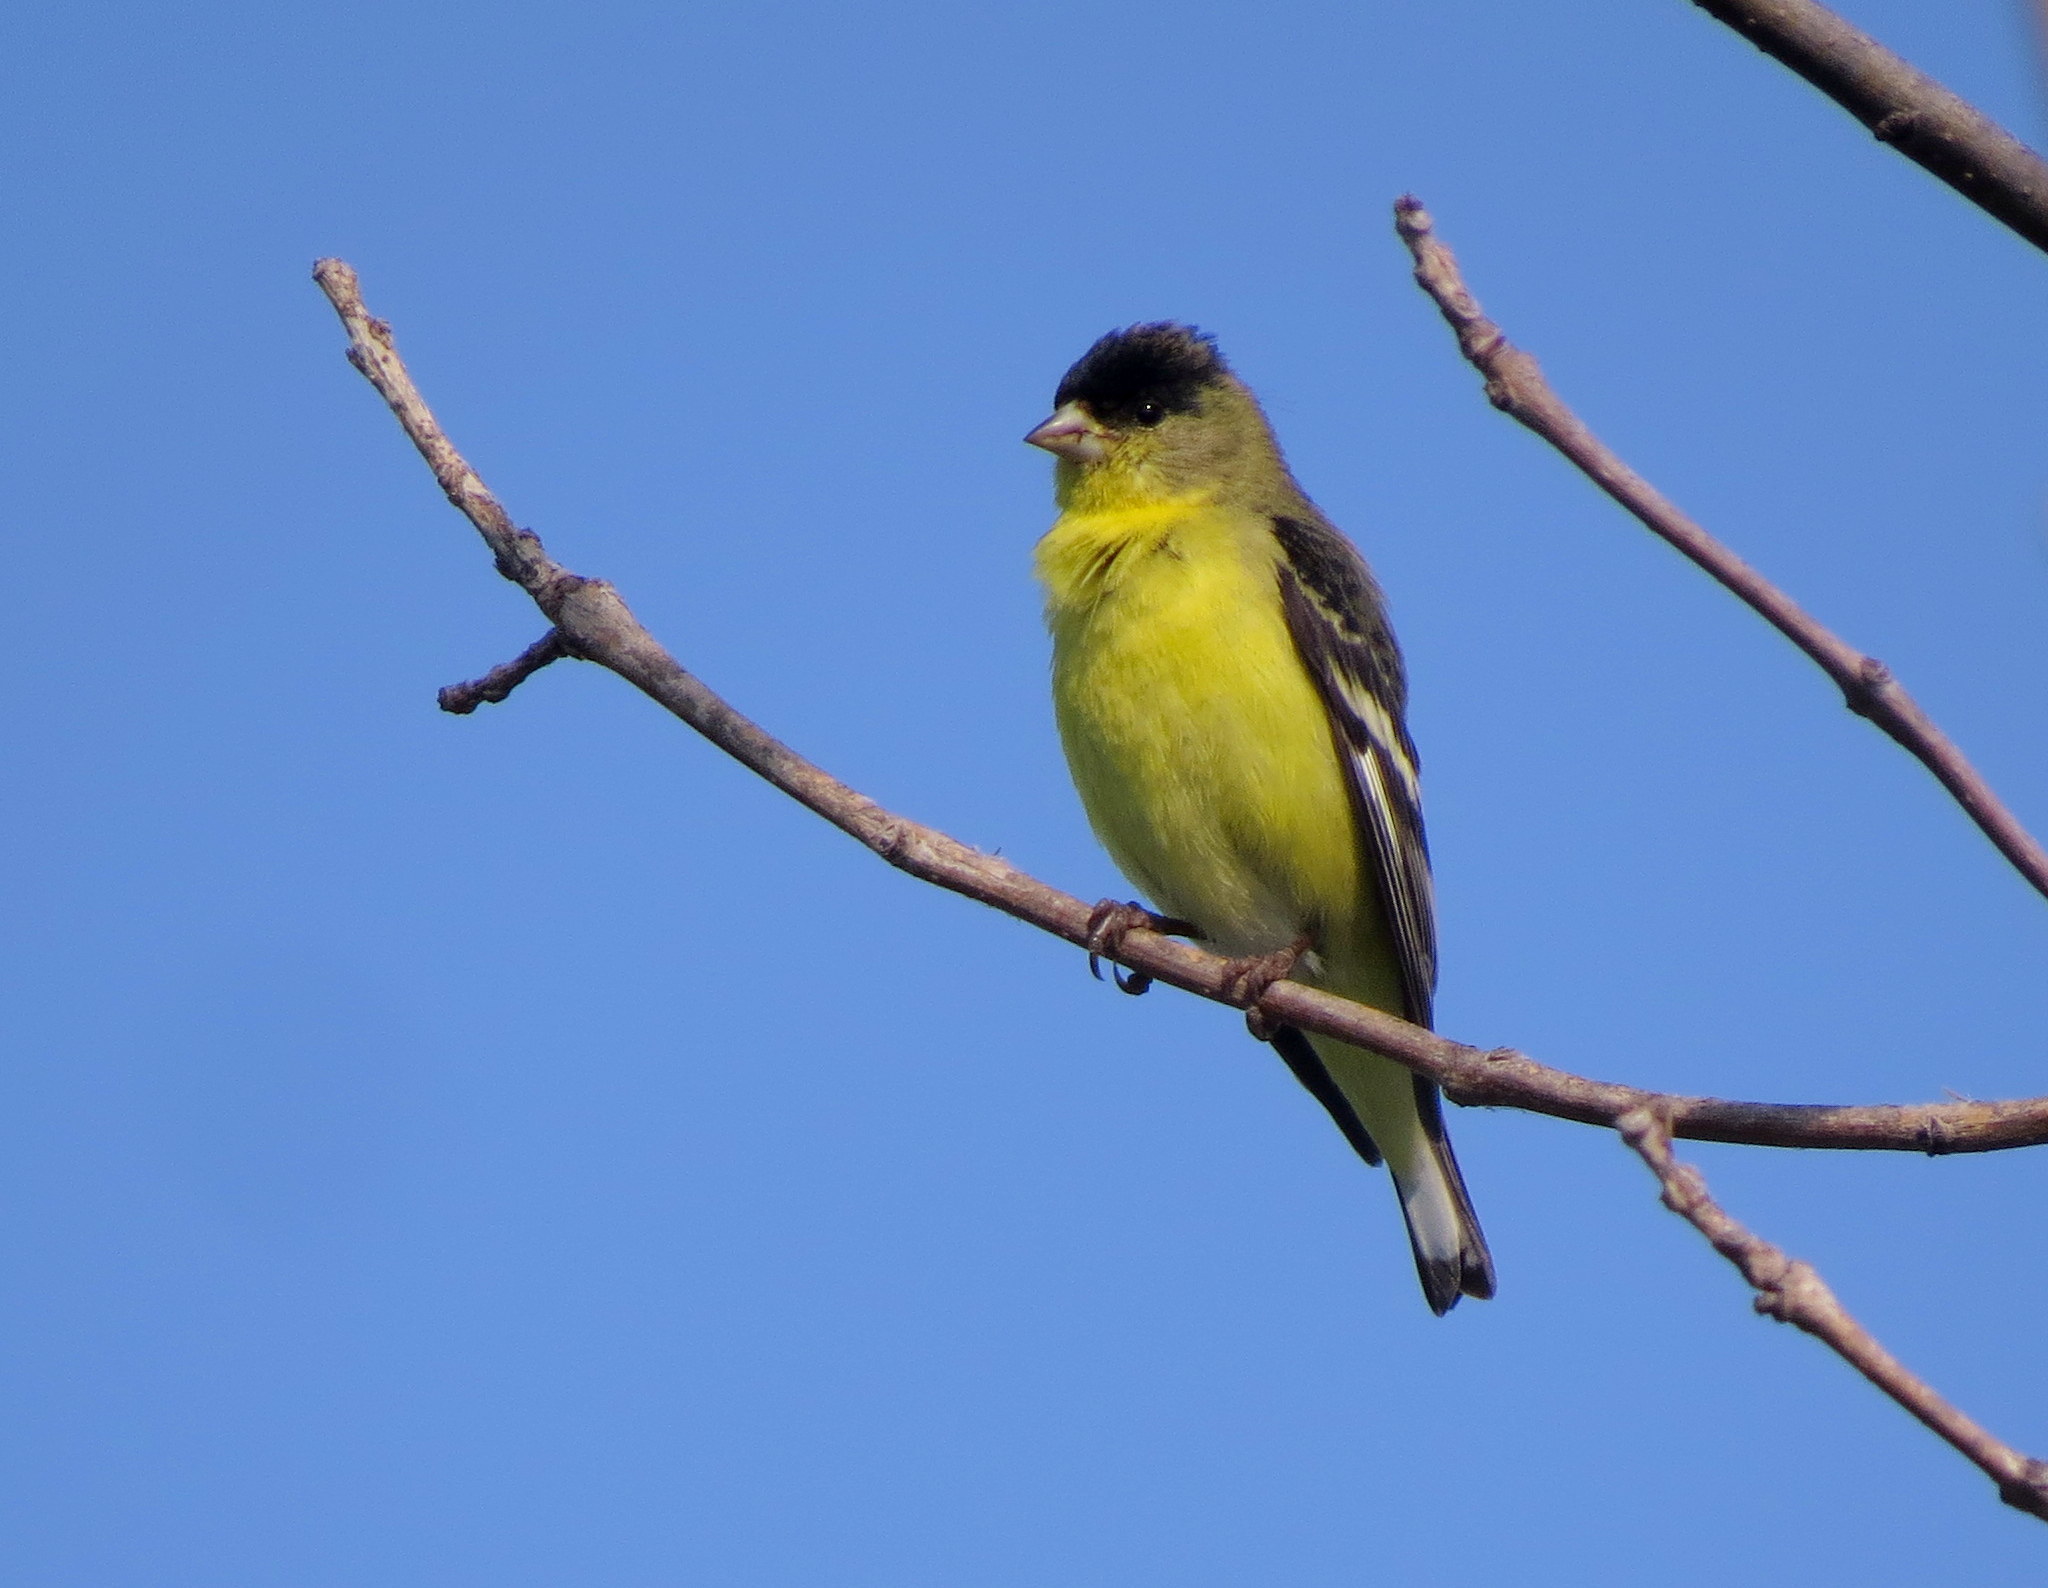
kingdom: Animalia
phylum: Chordata
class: Aves
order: Passeriformes
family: Fringillidae
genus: Spinus
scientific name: Spinus psaltria
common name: Lesser goldfinch
